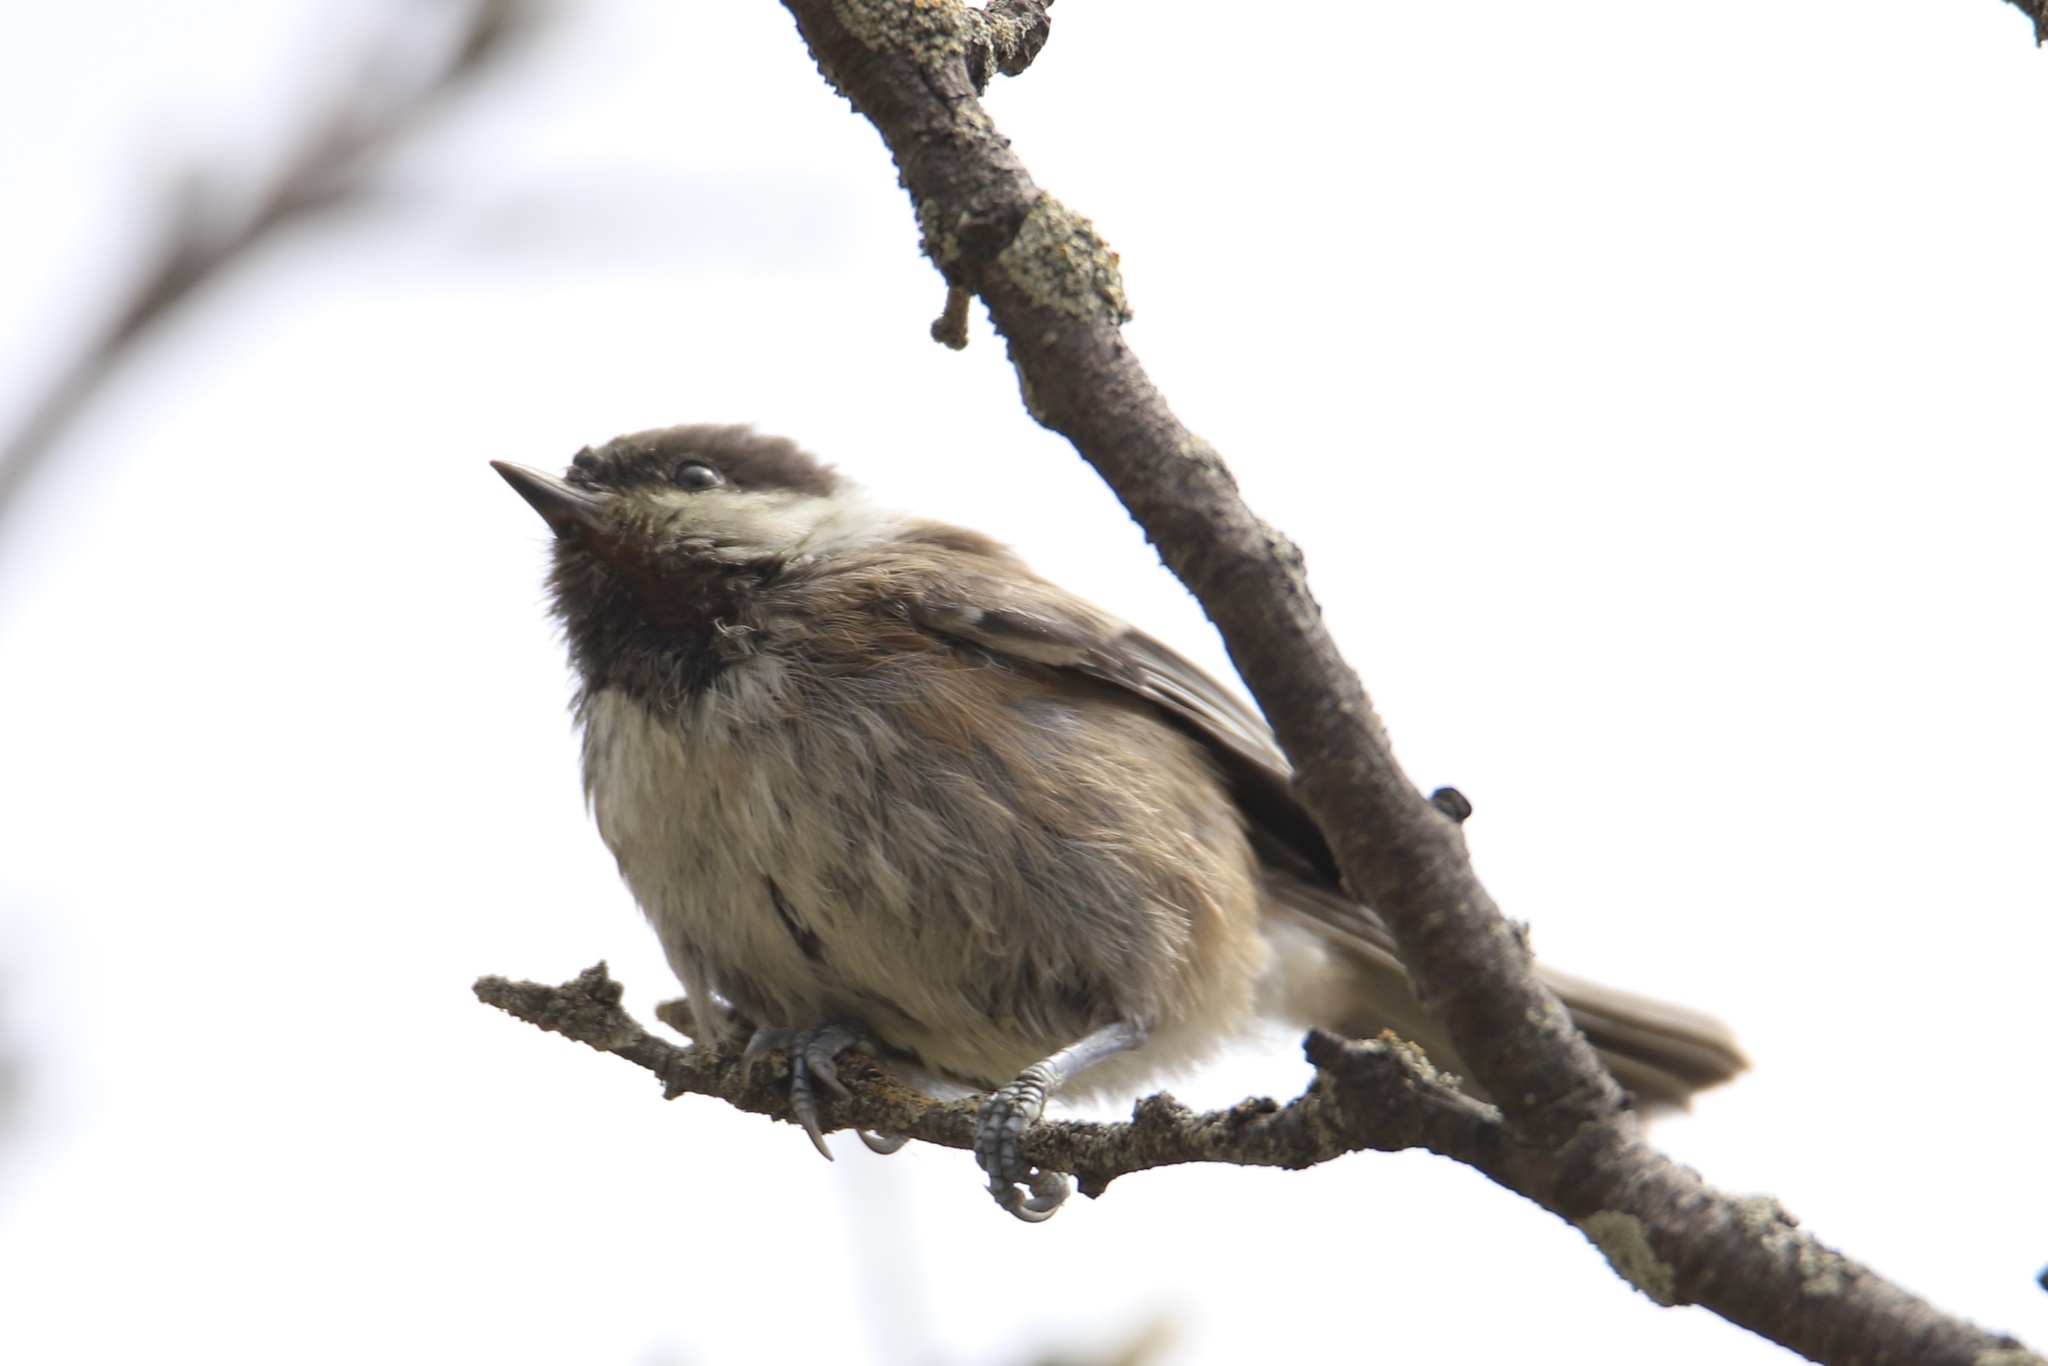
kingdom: Animalia
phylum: Chordata
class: Aves
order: Passeriformes
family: Paridae
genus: Poecile
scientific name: Poecile rufescens
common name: Chestnut-backed chickadee
